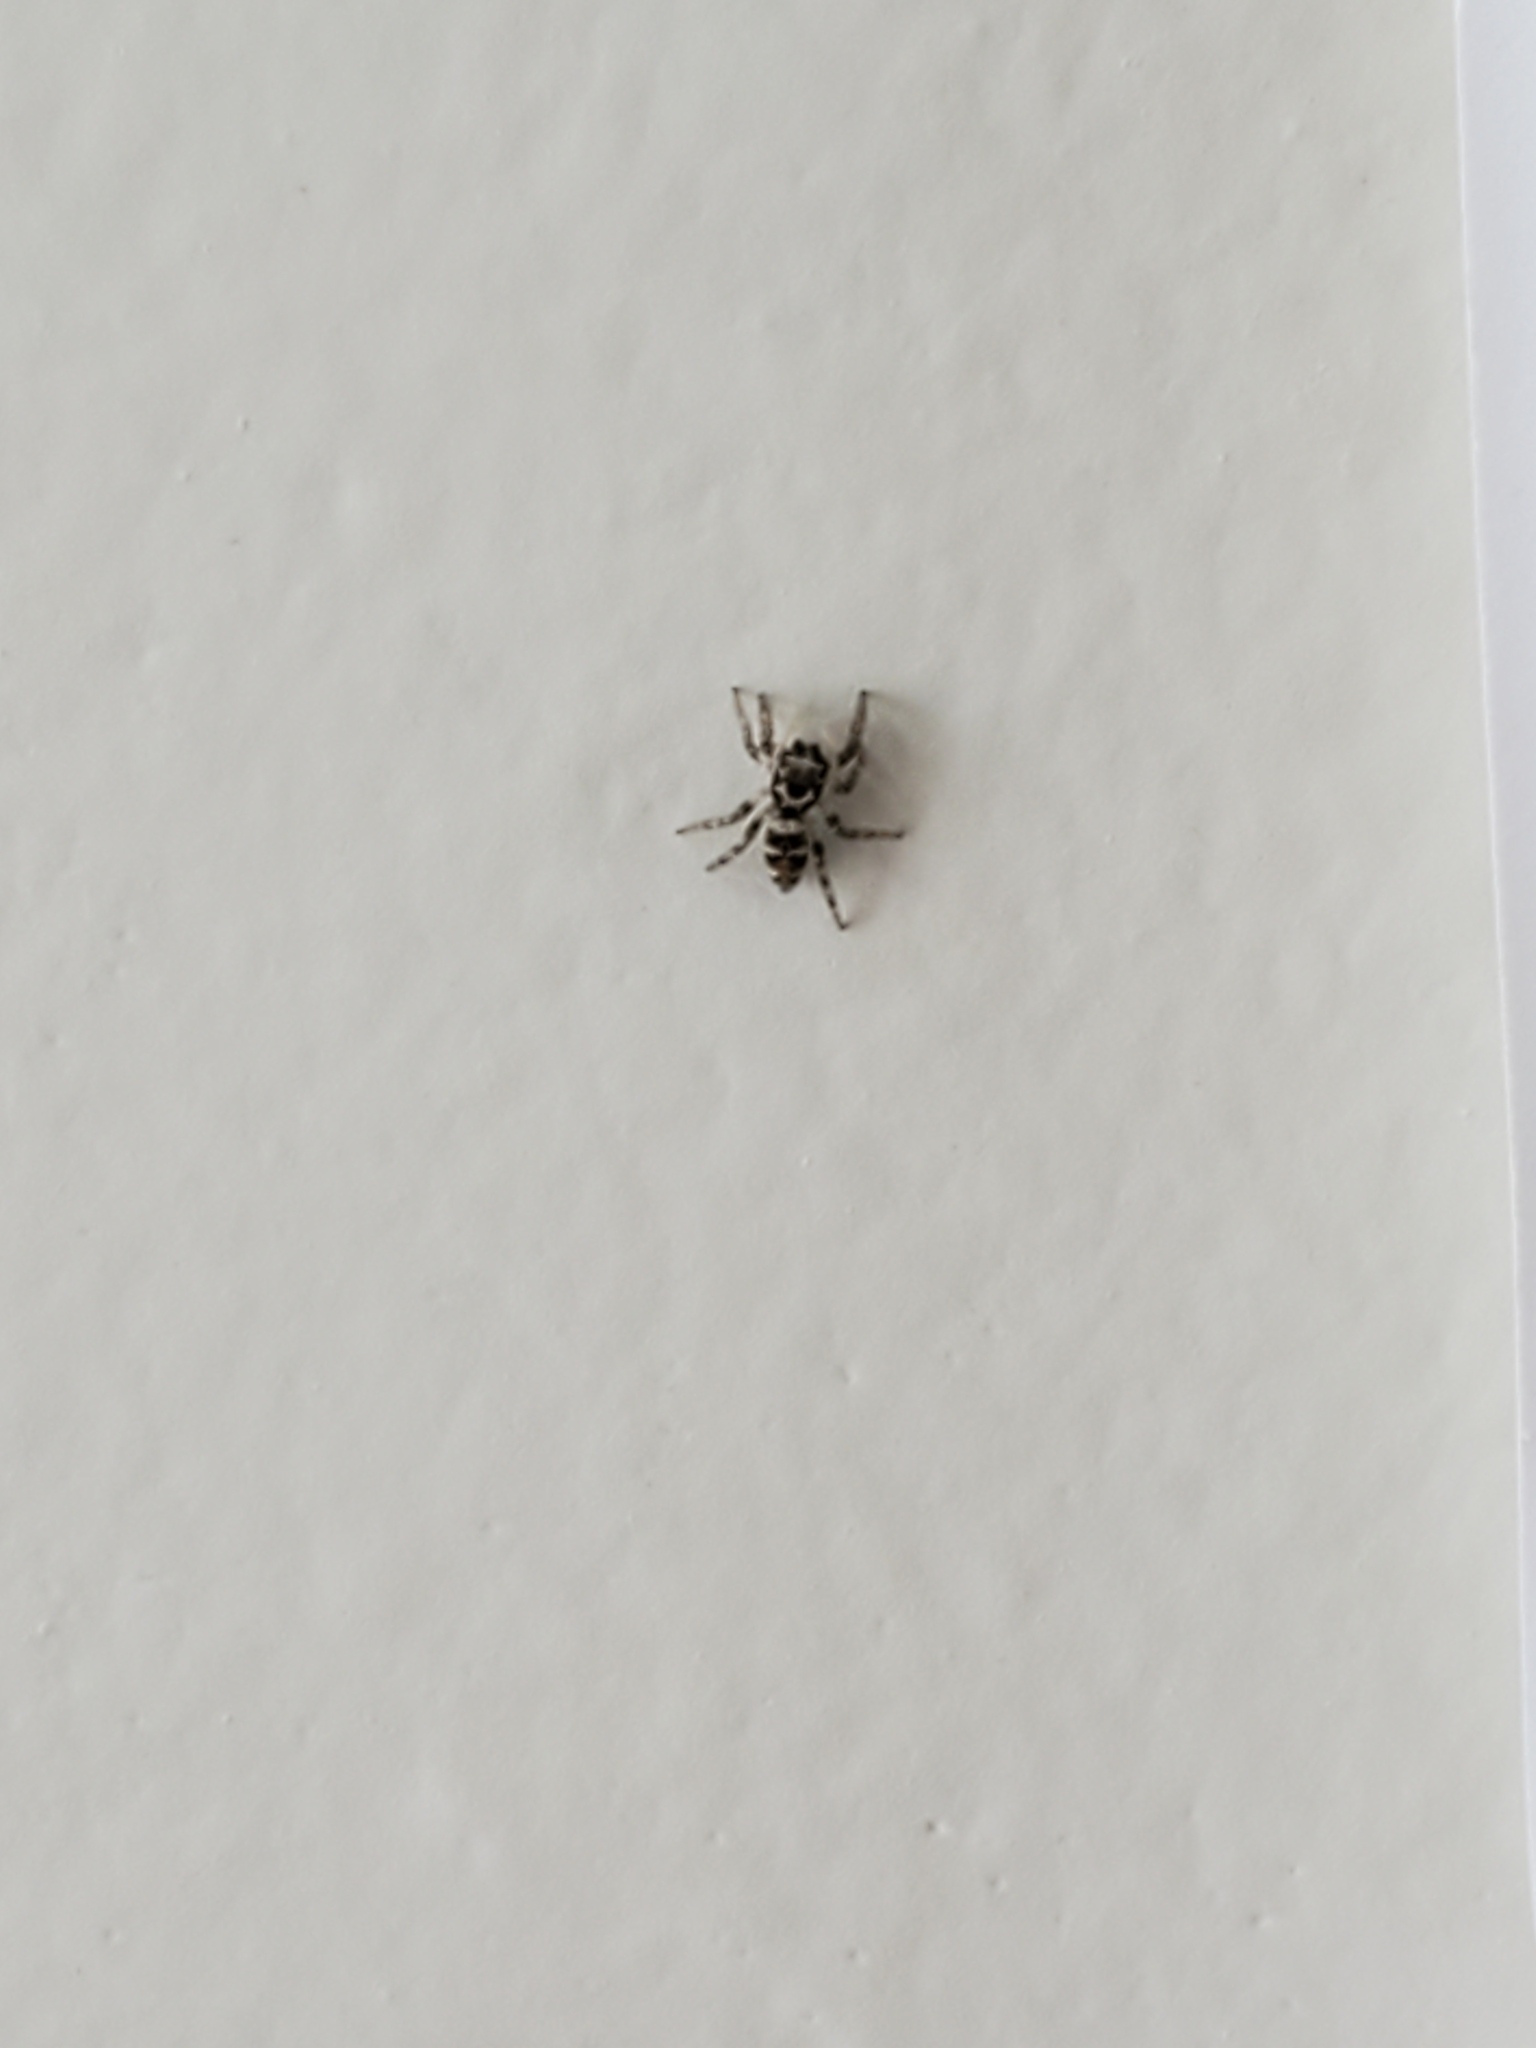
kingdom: Animalia
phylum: Arthropoda
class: Arachnida
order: Araneae
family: Salticidae
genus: Salticus
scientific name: Salticus scenicus
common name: Zebra jumper
